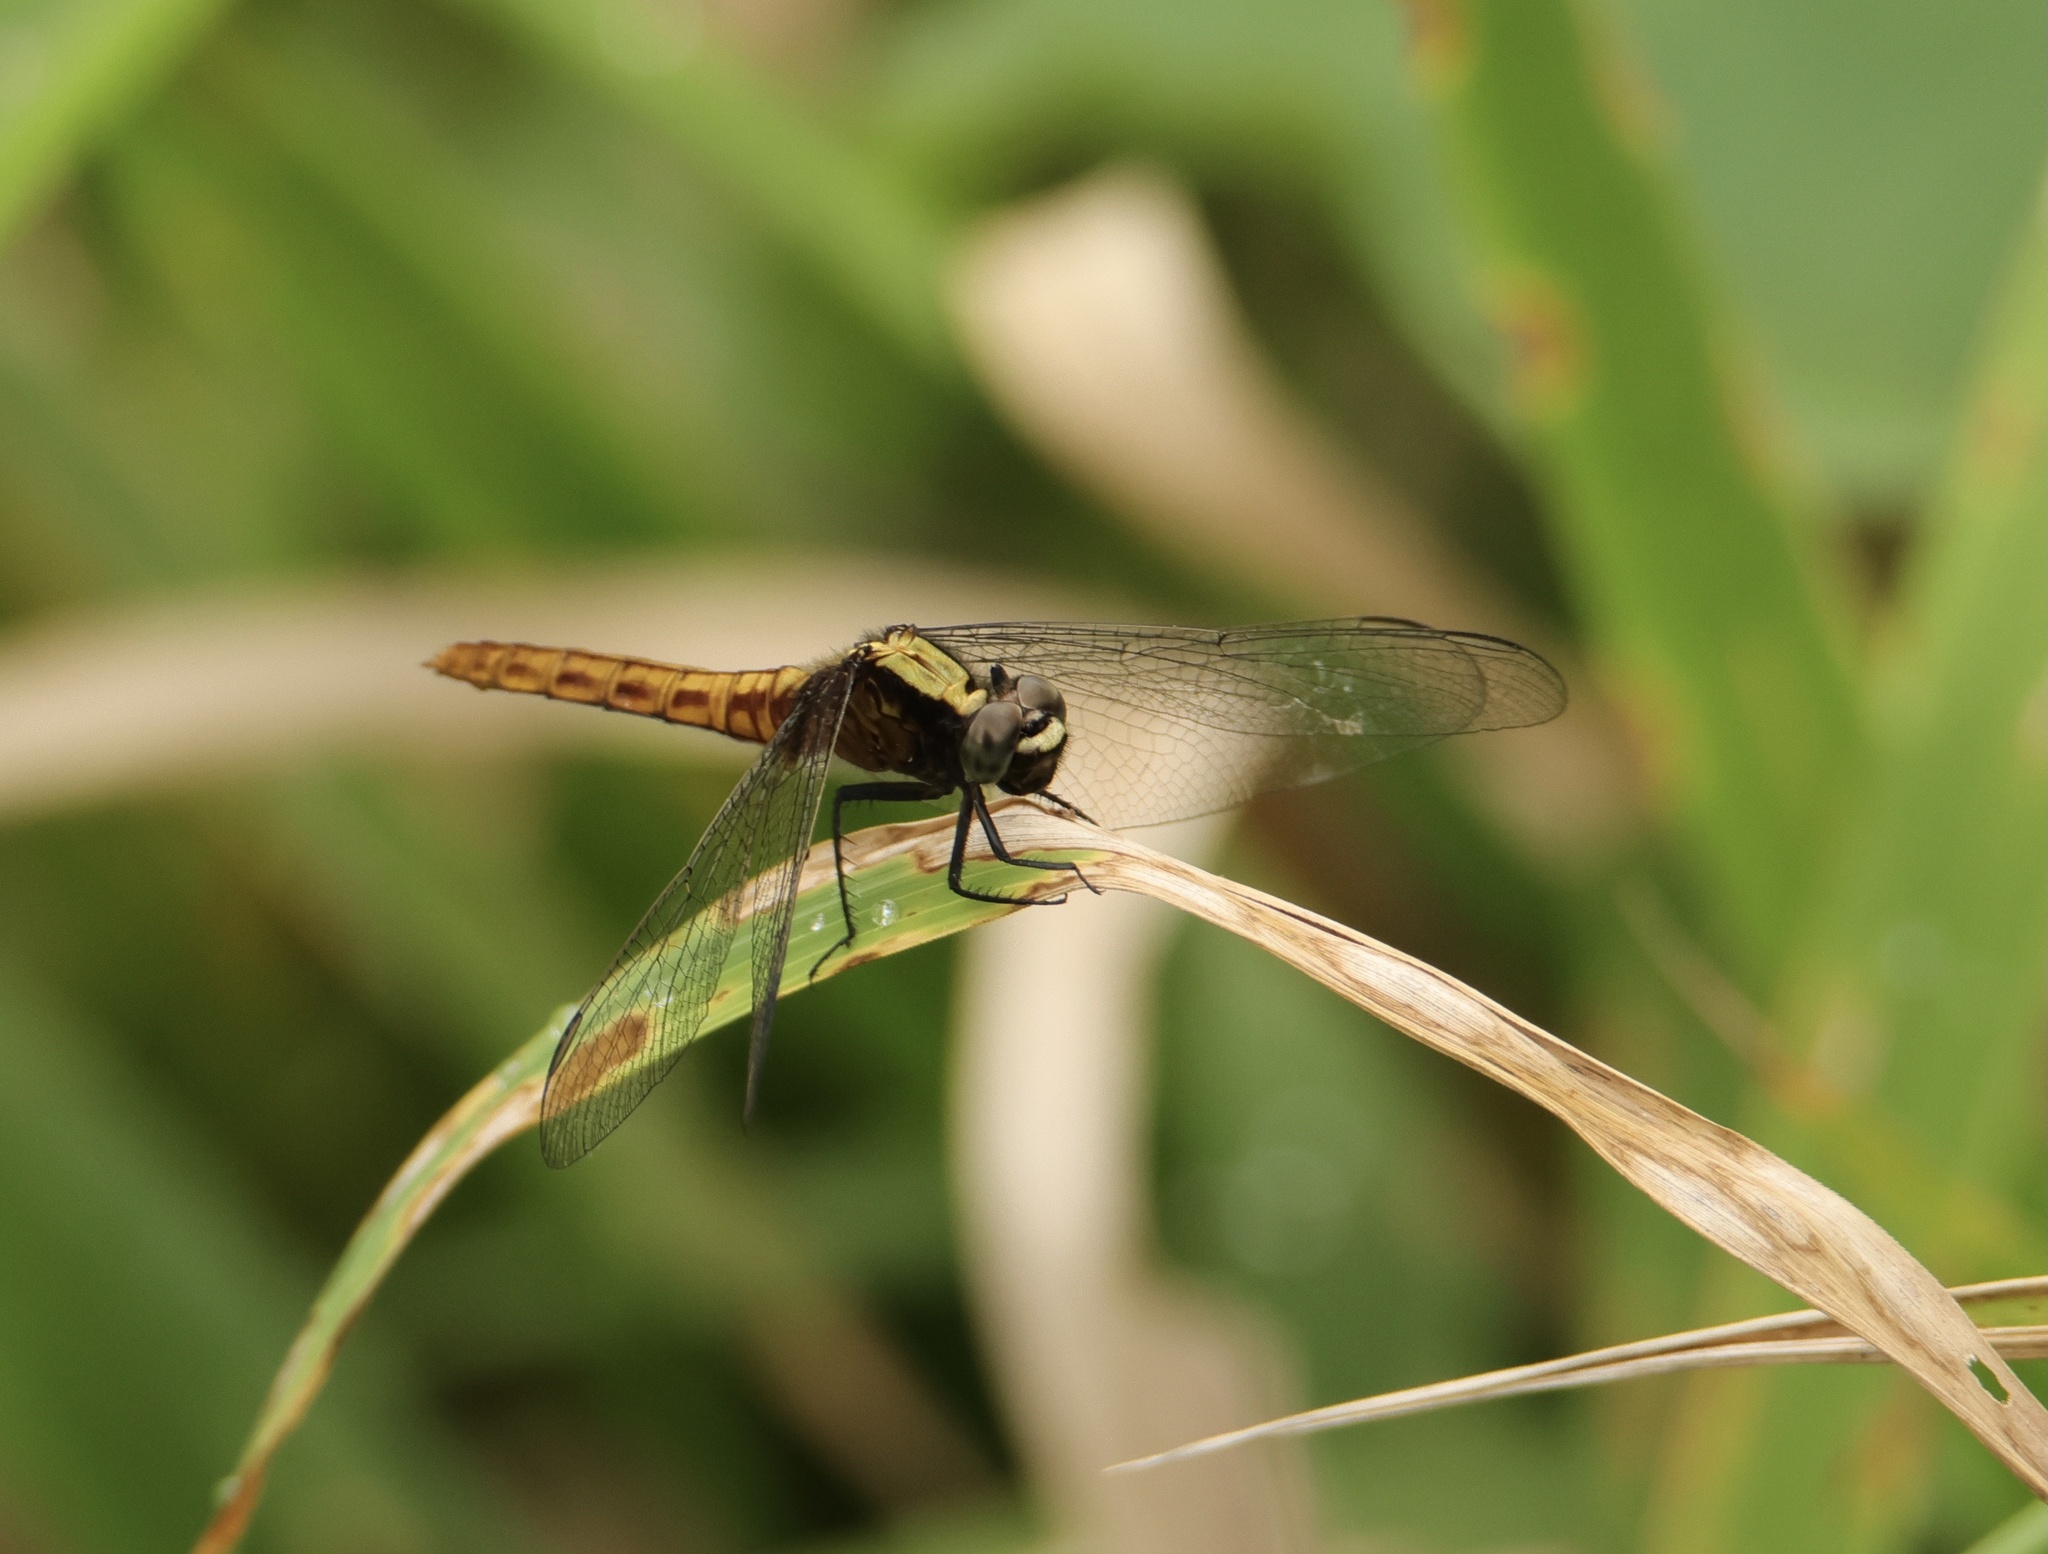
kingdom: Animalia
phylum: Arthropoda
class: Insecta
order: Odonata
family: Libellulidae
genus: Erythemis
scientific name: Erythemis peruviana
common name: Flame-tailed pondhawk
